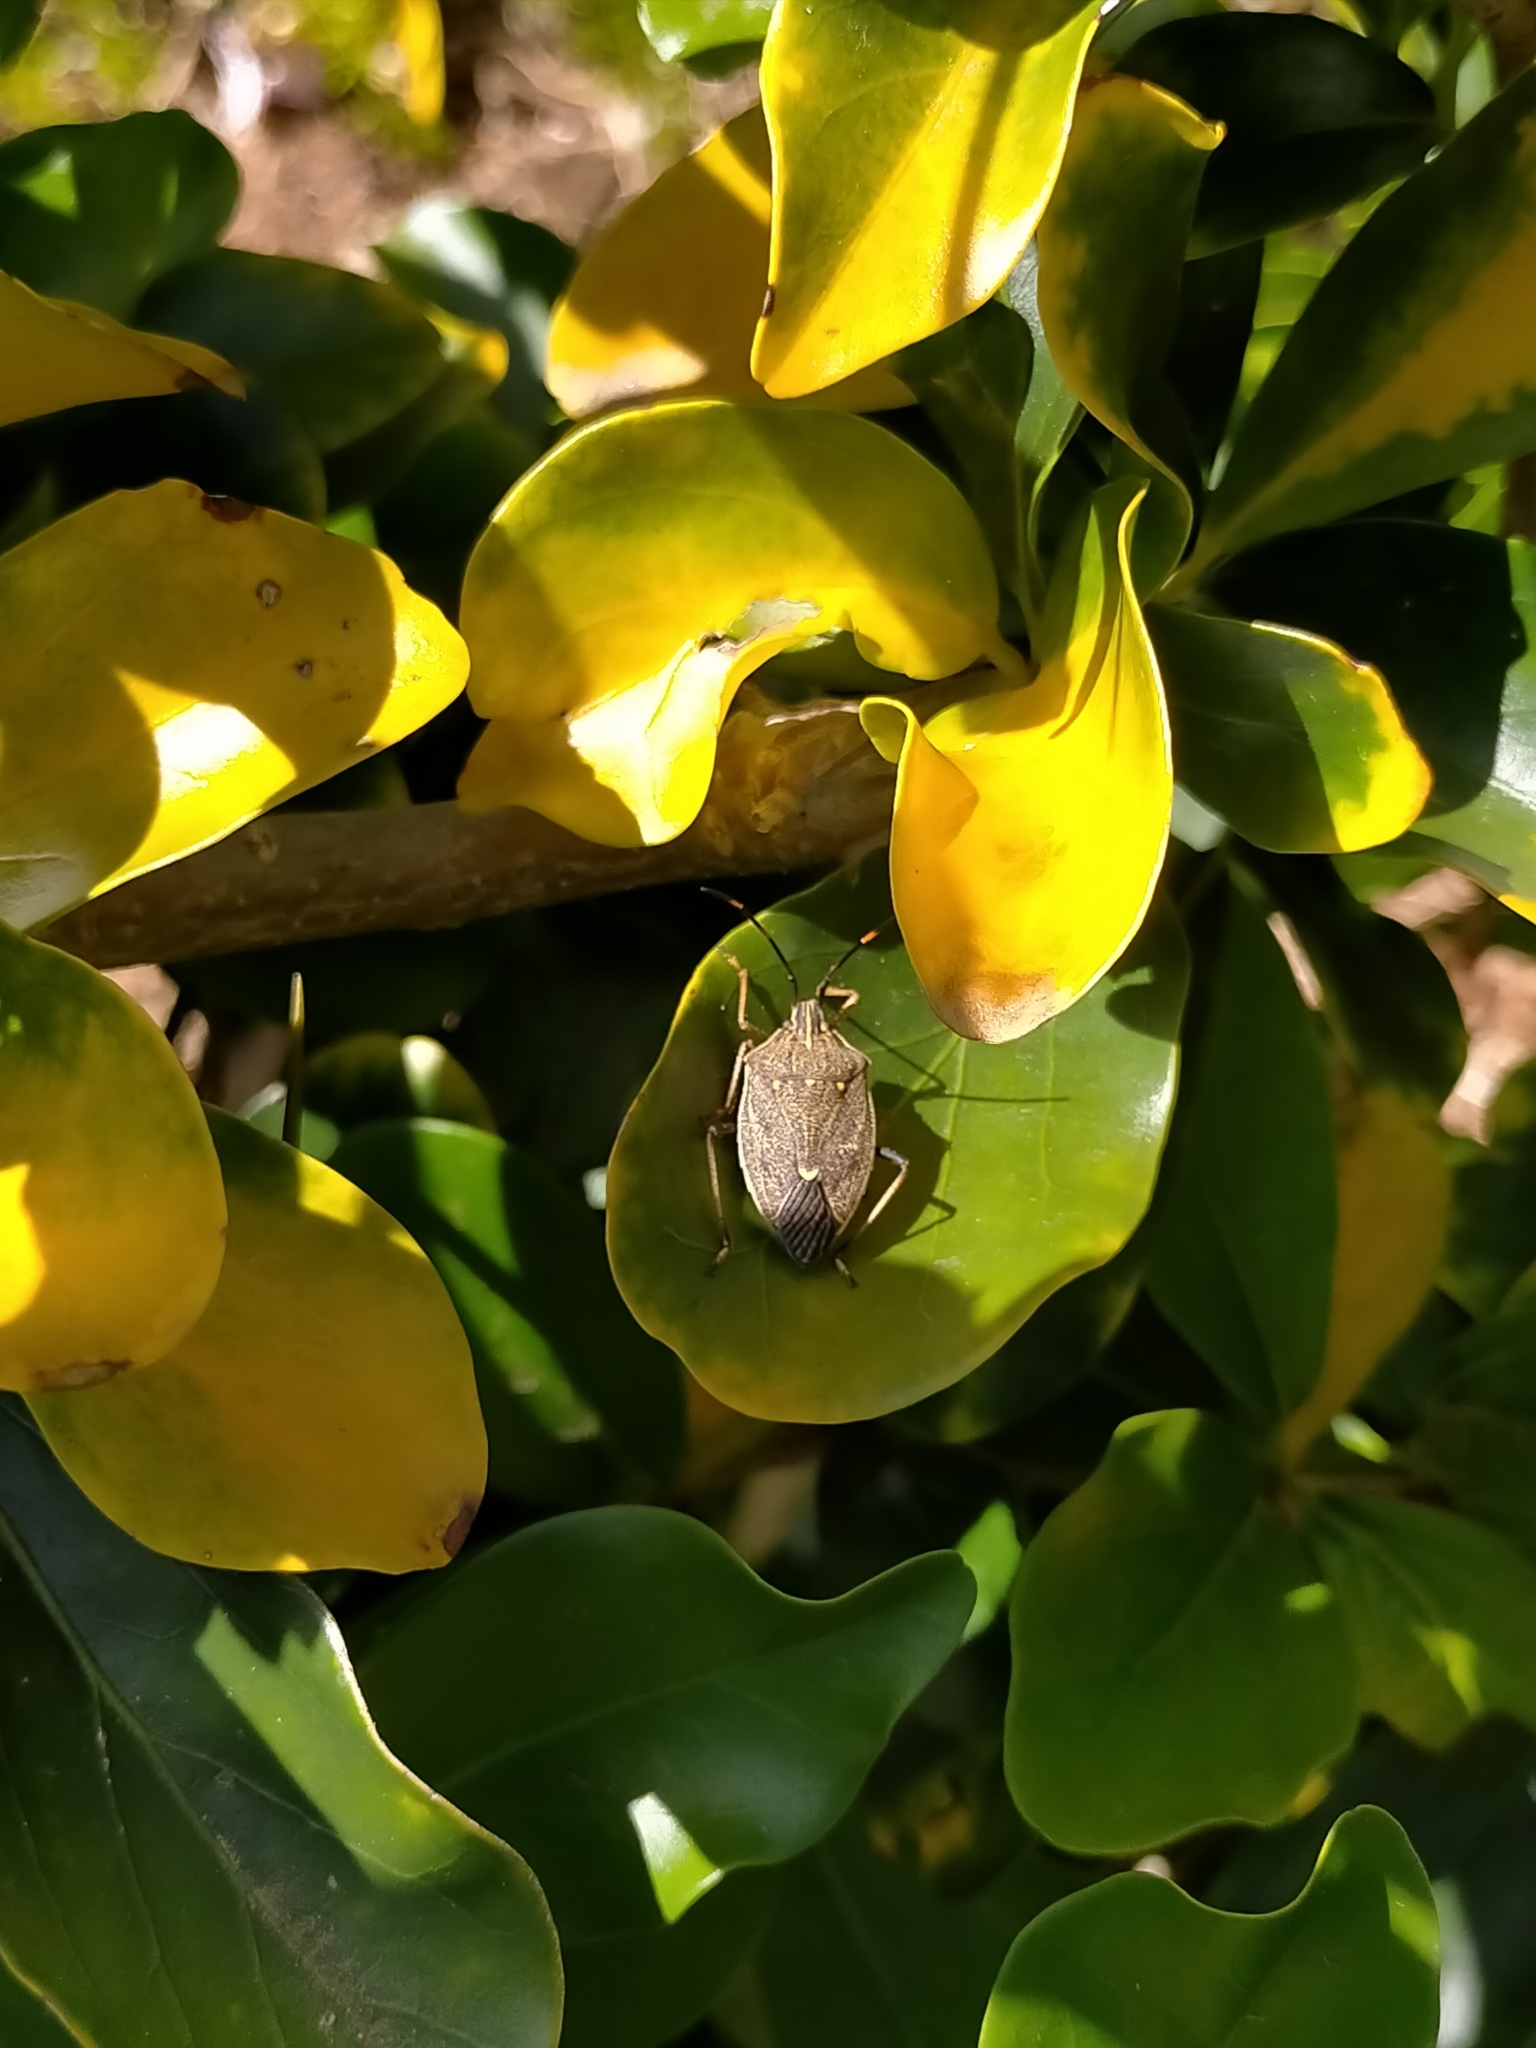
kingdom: Animalia
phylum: Arthropoda
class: Insecta
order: Hemiptera
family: Pentatomidae
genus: Poecilometis
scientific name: Poecilometis
